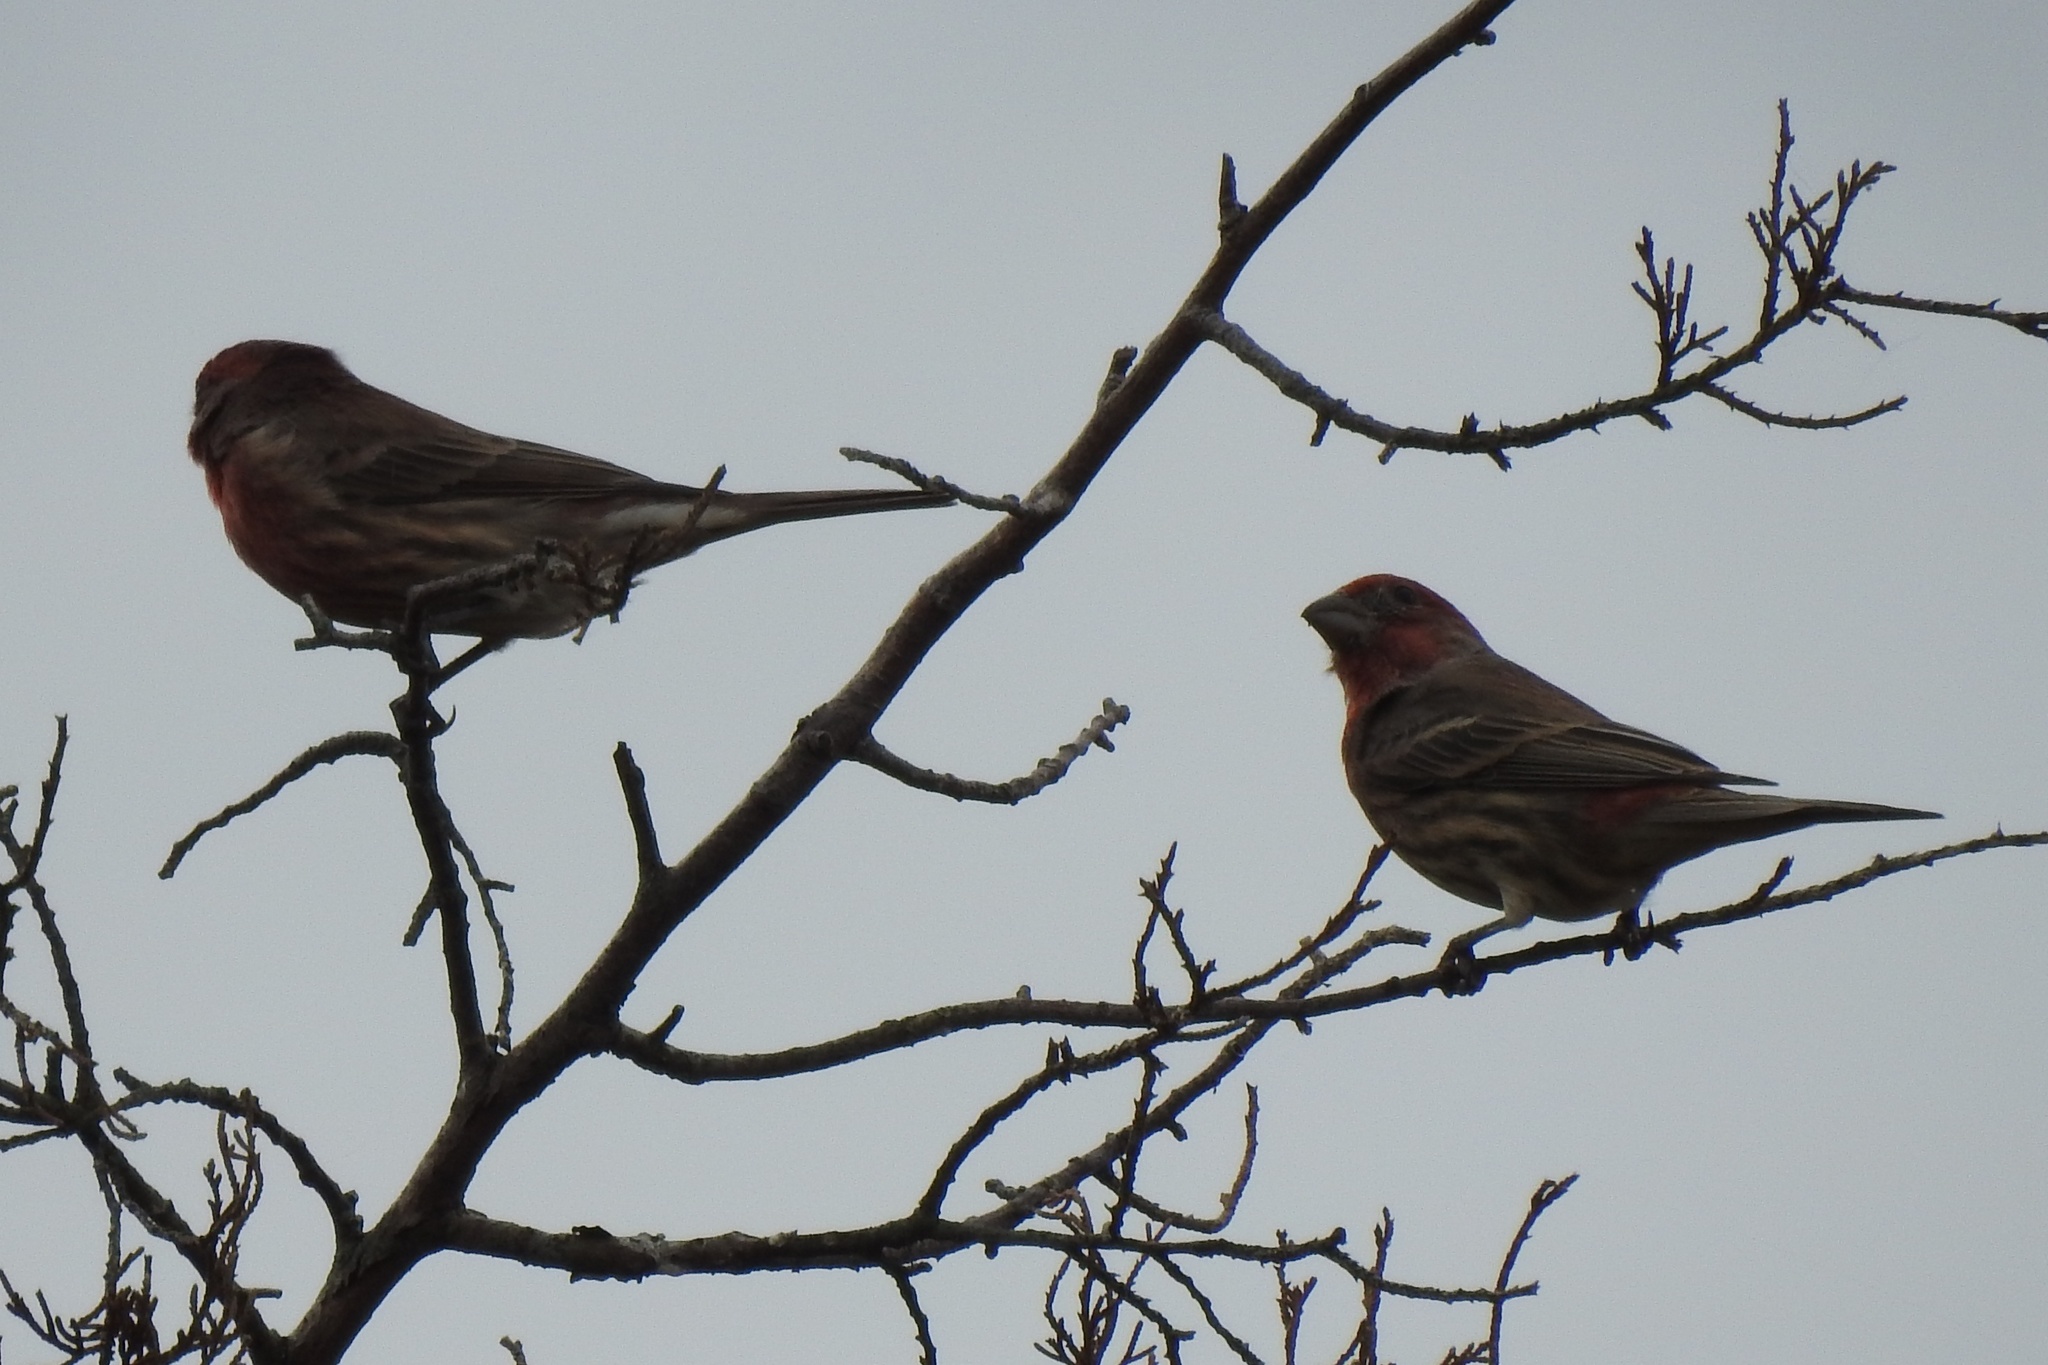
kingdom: Animalia
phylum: Chordata
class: Aves
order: Passeriformes
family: Fringillidae
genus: Haemorhous
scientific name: Haemorhous mexicanus
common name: House finch
